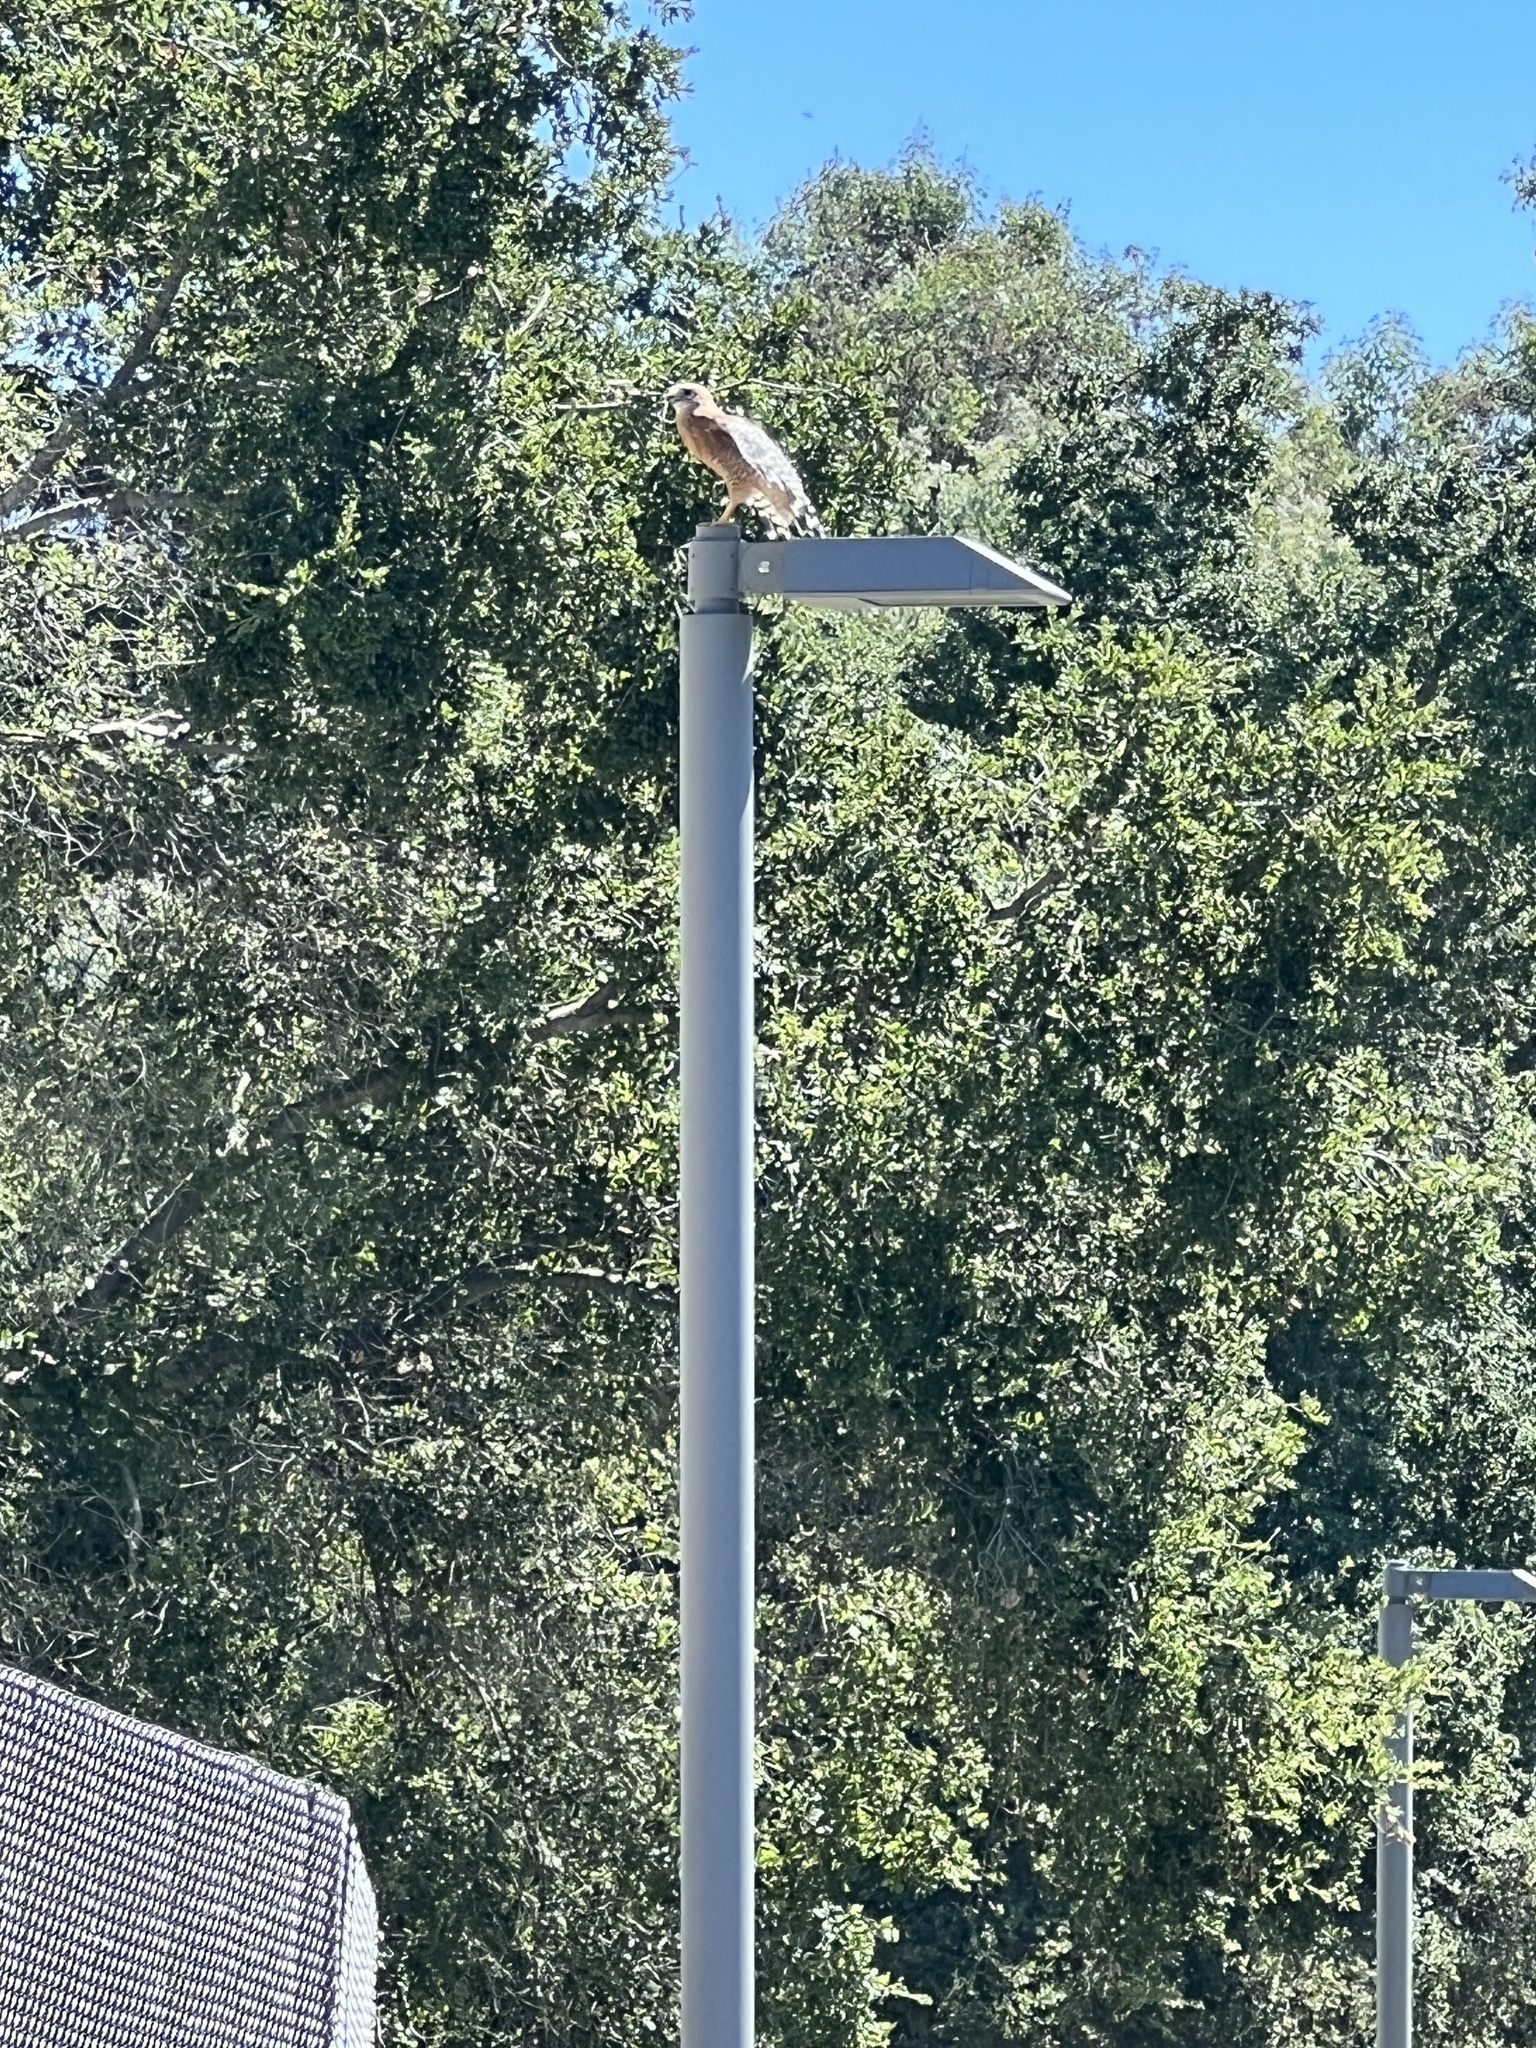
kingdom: Animalia
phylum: Chordata
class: Aves
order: Accipitriformes
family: Accipitridae
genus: Buteo
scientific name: Buteo lineatus
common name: Red-shouldered hawk
